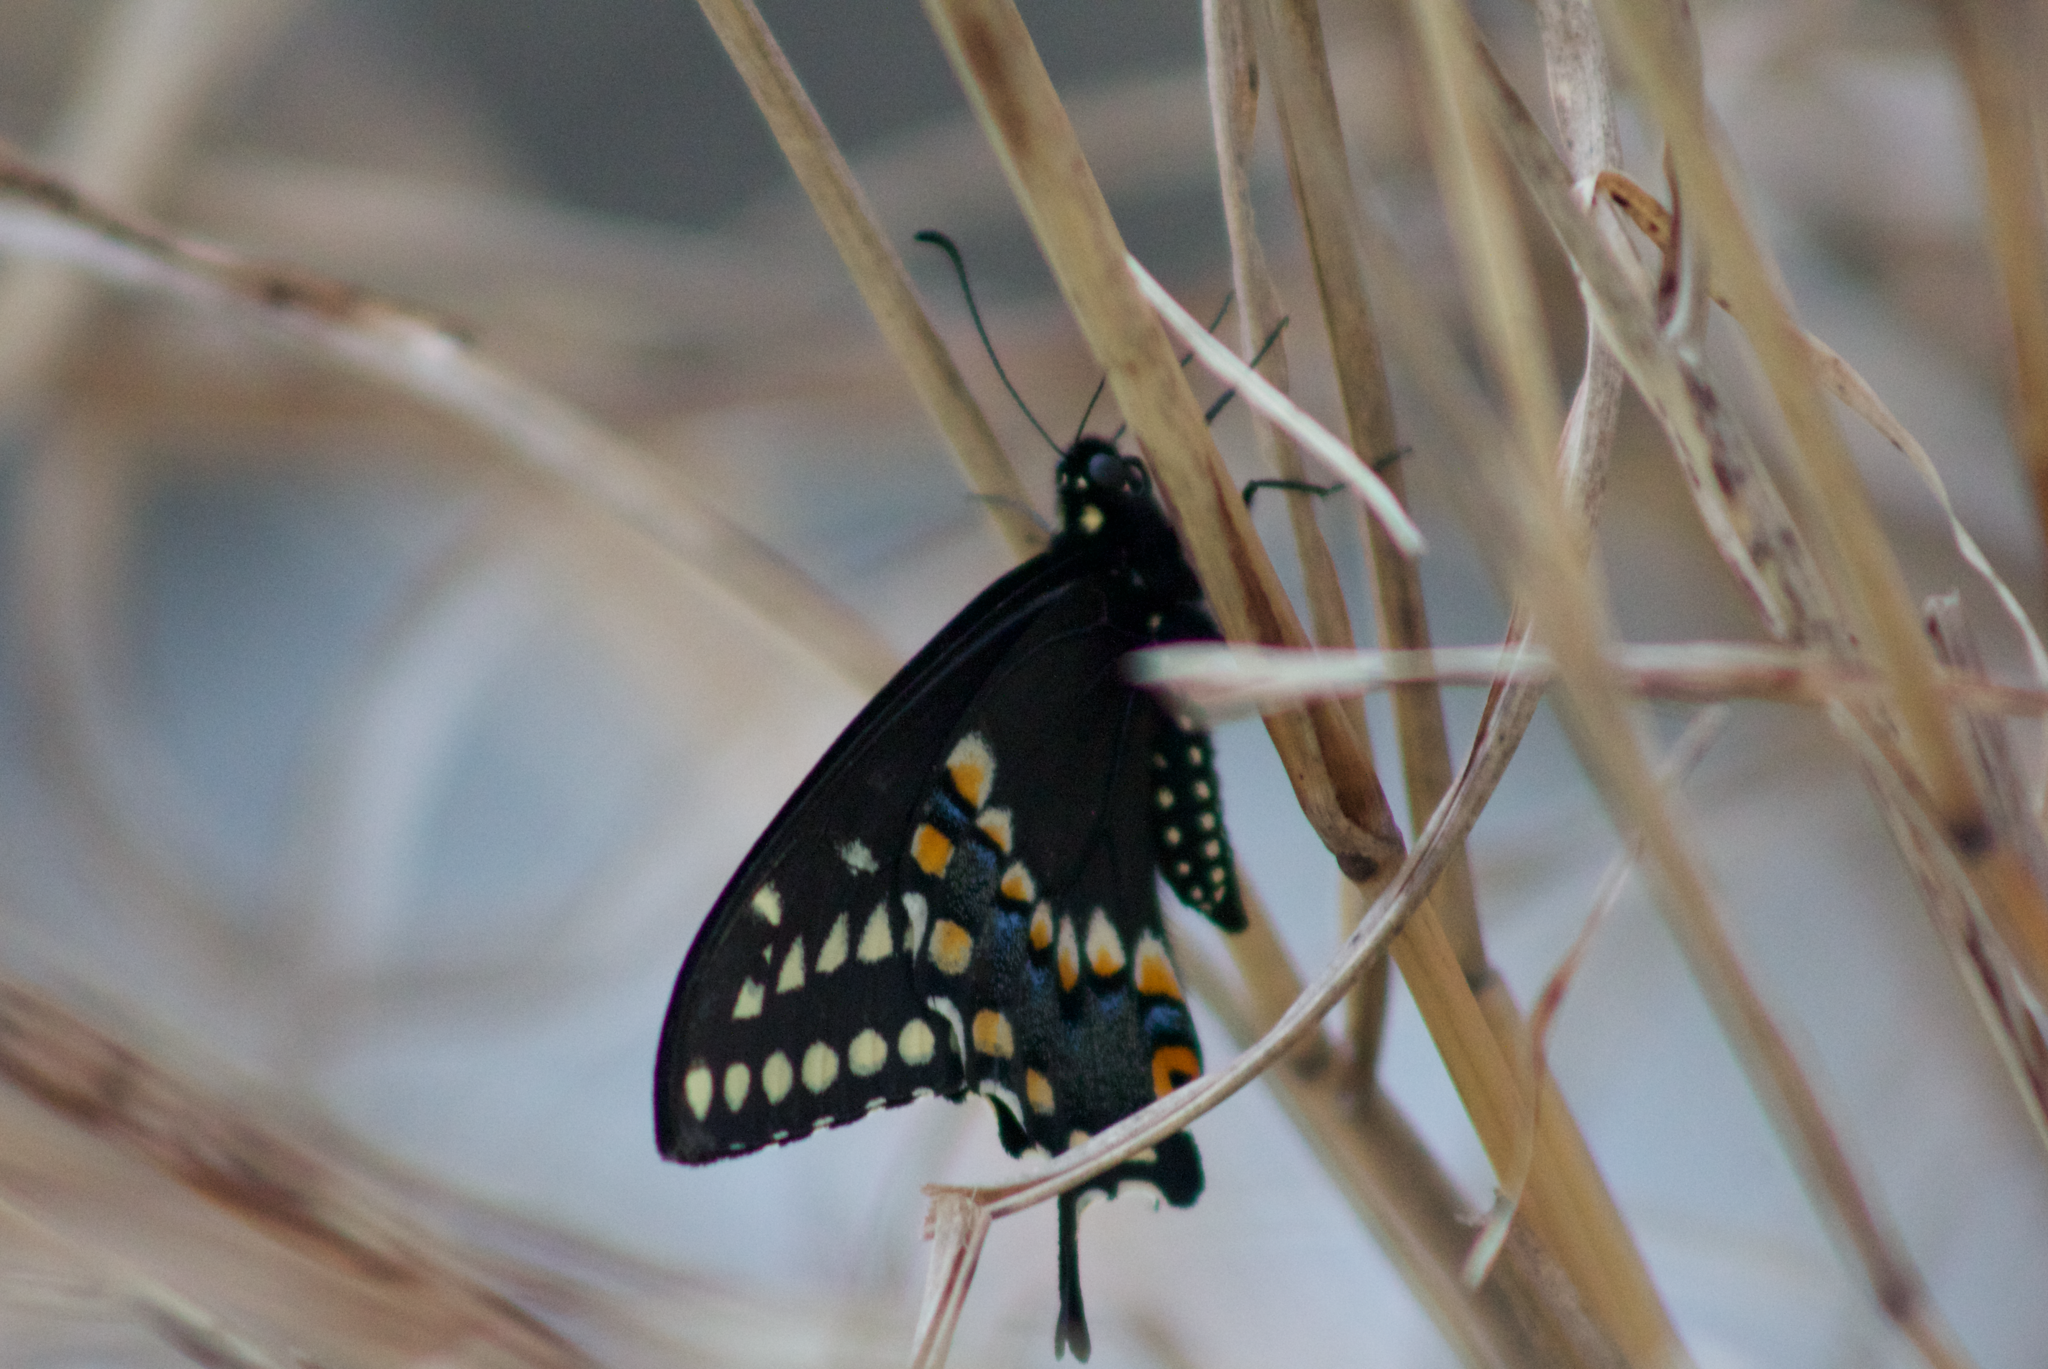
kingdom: Animalia
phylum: Arthropoda
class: Insecta
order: Lepidoptera
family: Papilionidae
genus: Papilio
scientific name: Papilio polyxenes
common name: Black swallowtail
